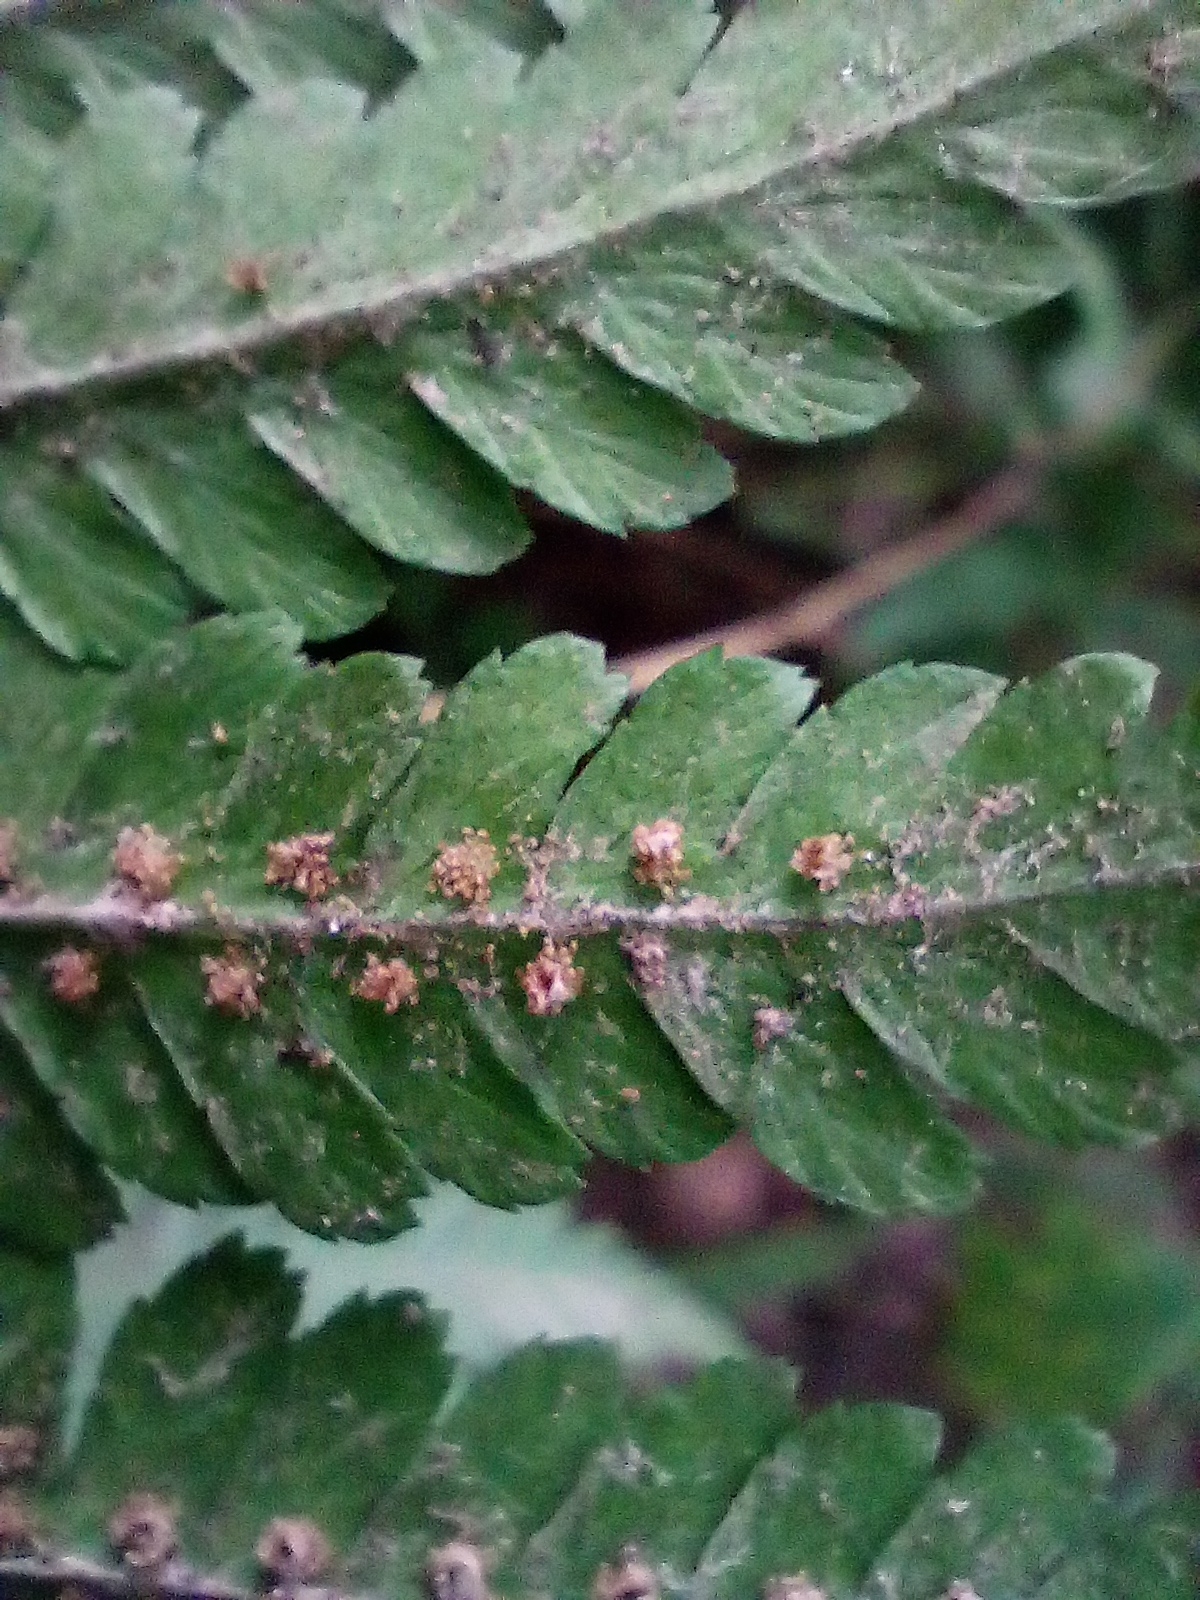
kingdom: Plantae
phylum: Tracheophyta
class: Polypodiopsida
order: Polypodiales
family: Dryopteridaceae
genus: Dryopteris
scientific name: Dryopteris filix-mas
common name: Male fern
